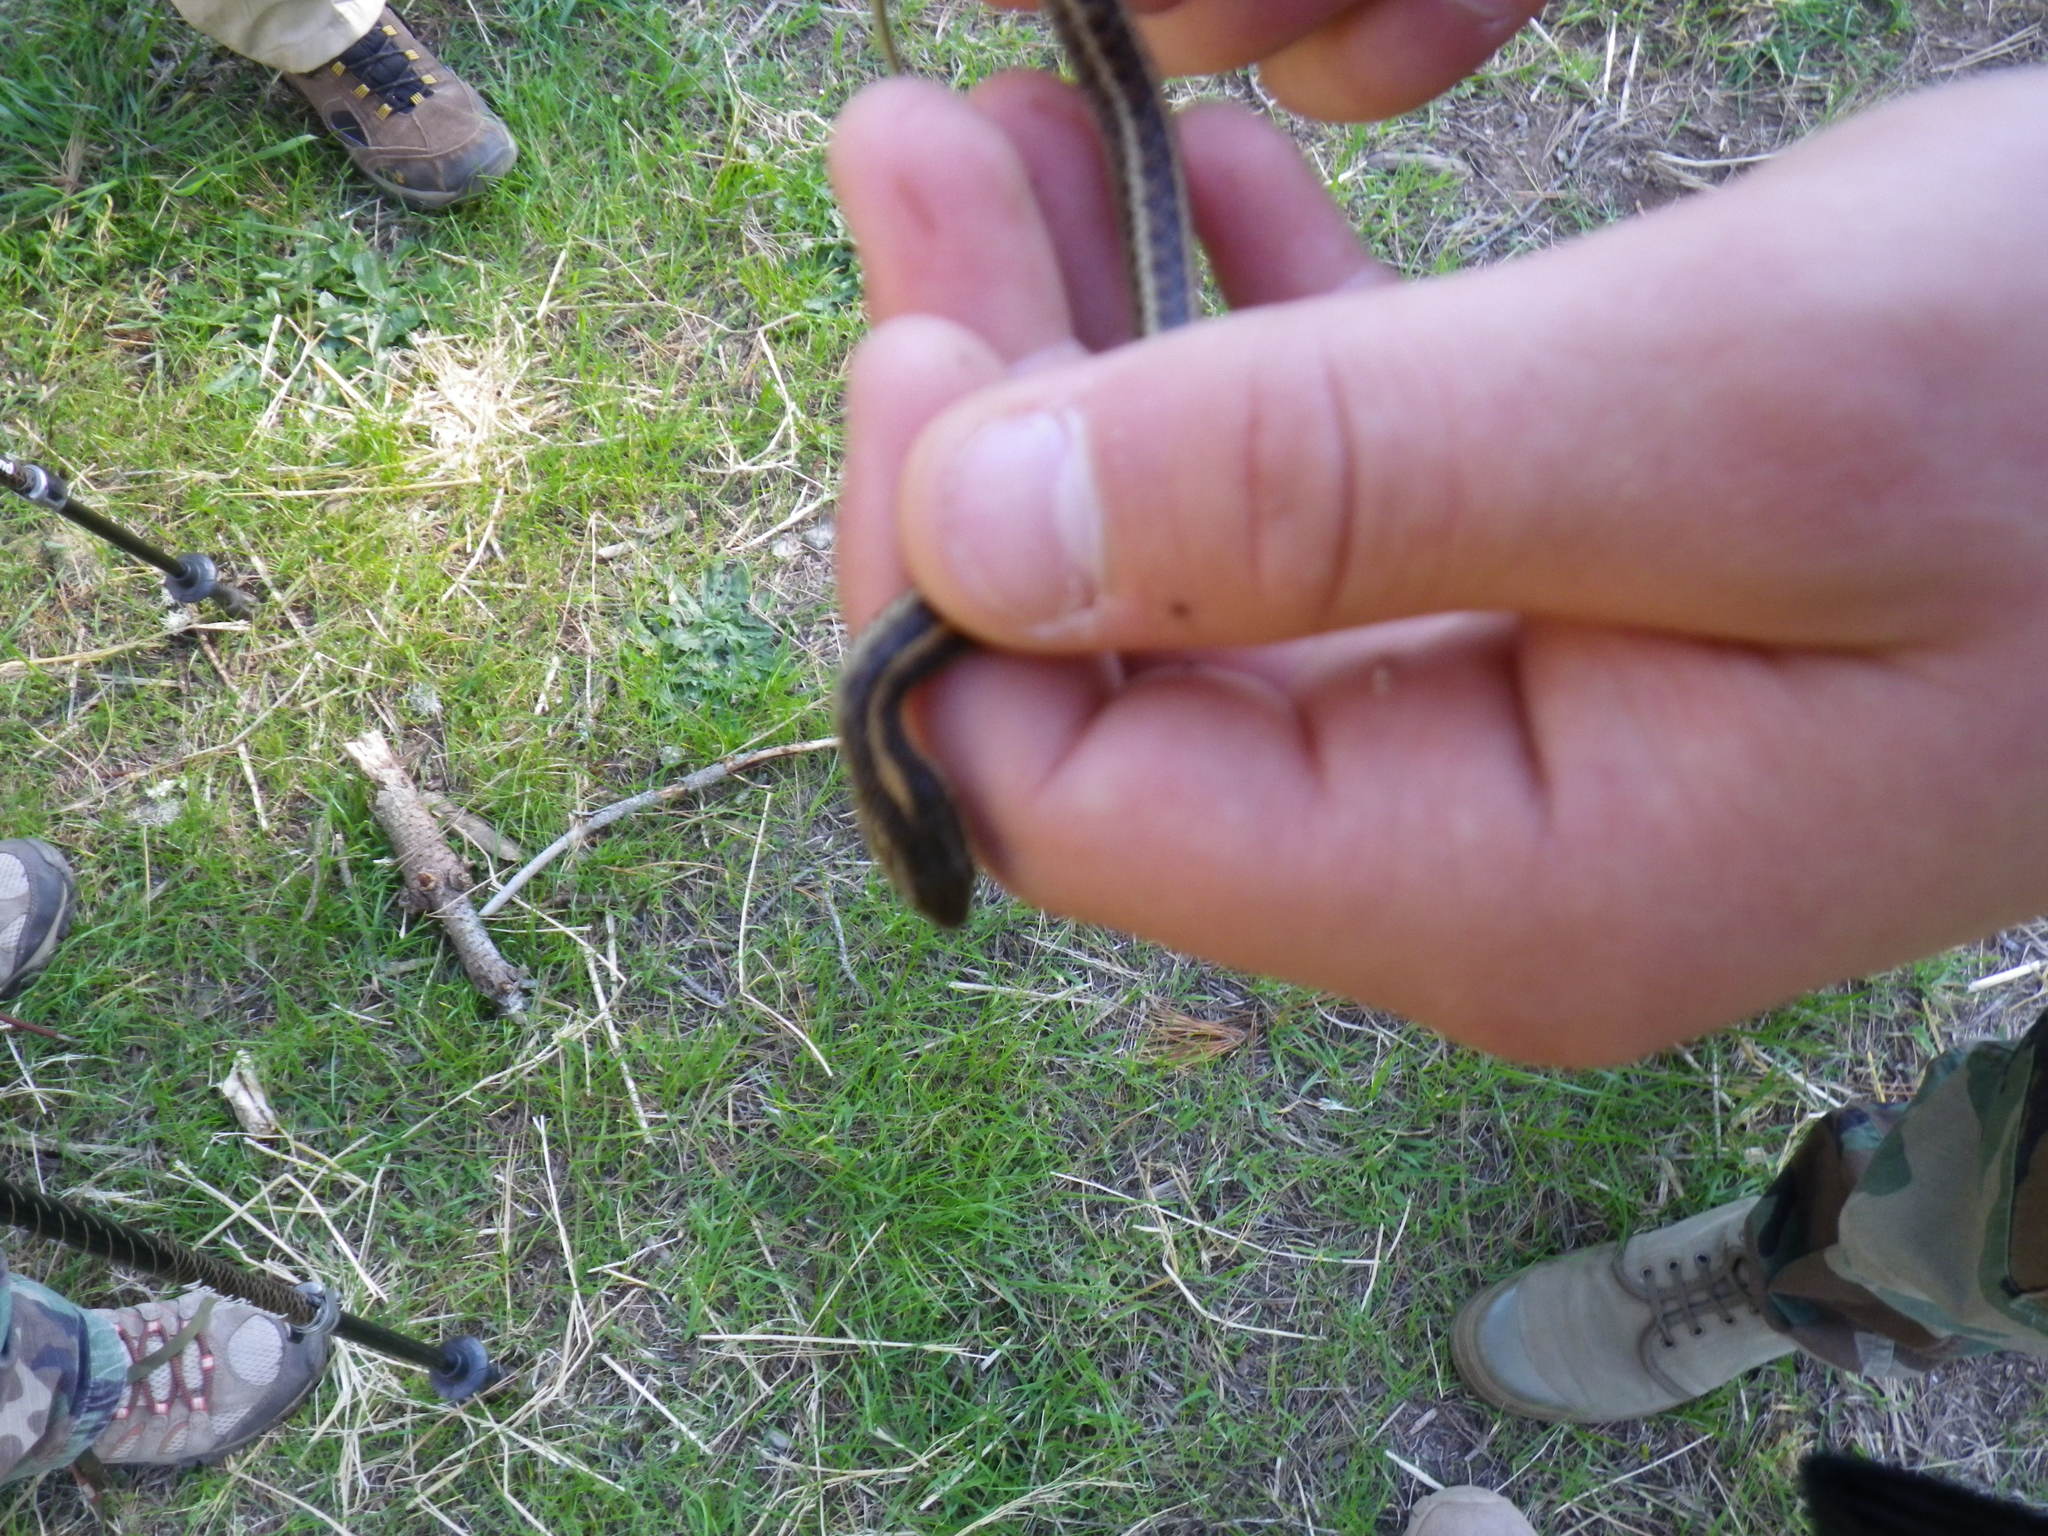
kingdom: Animalia
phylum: Chordata
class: Squamata
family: Colubridae
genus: Thamnophis
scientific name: Thamnophis atratus
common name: Pacific coast aquatic garter snake
